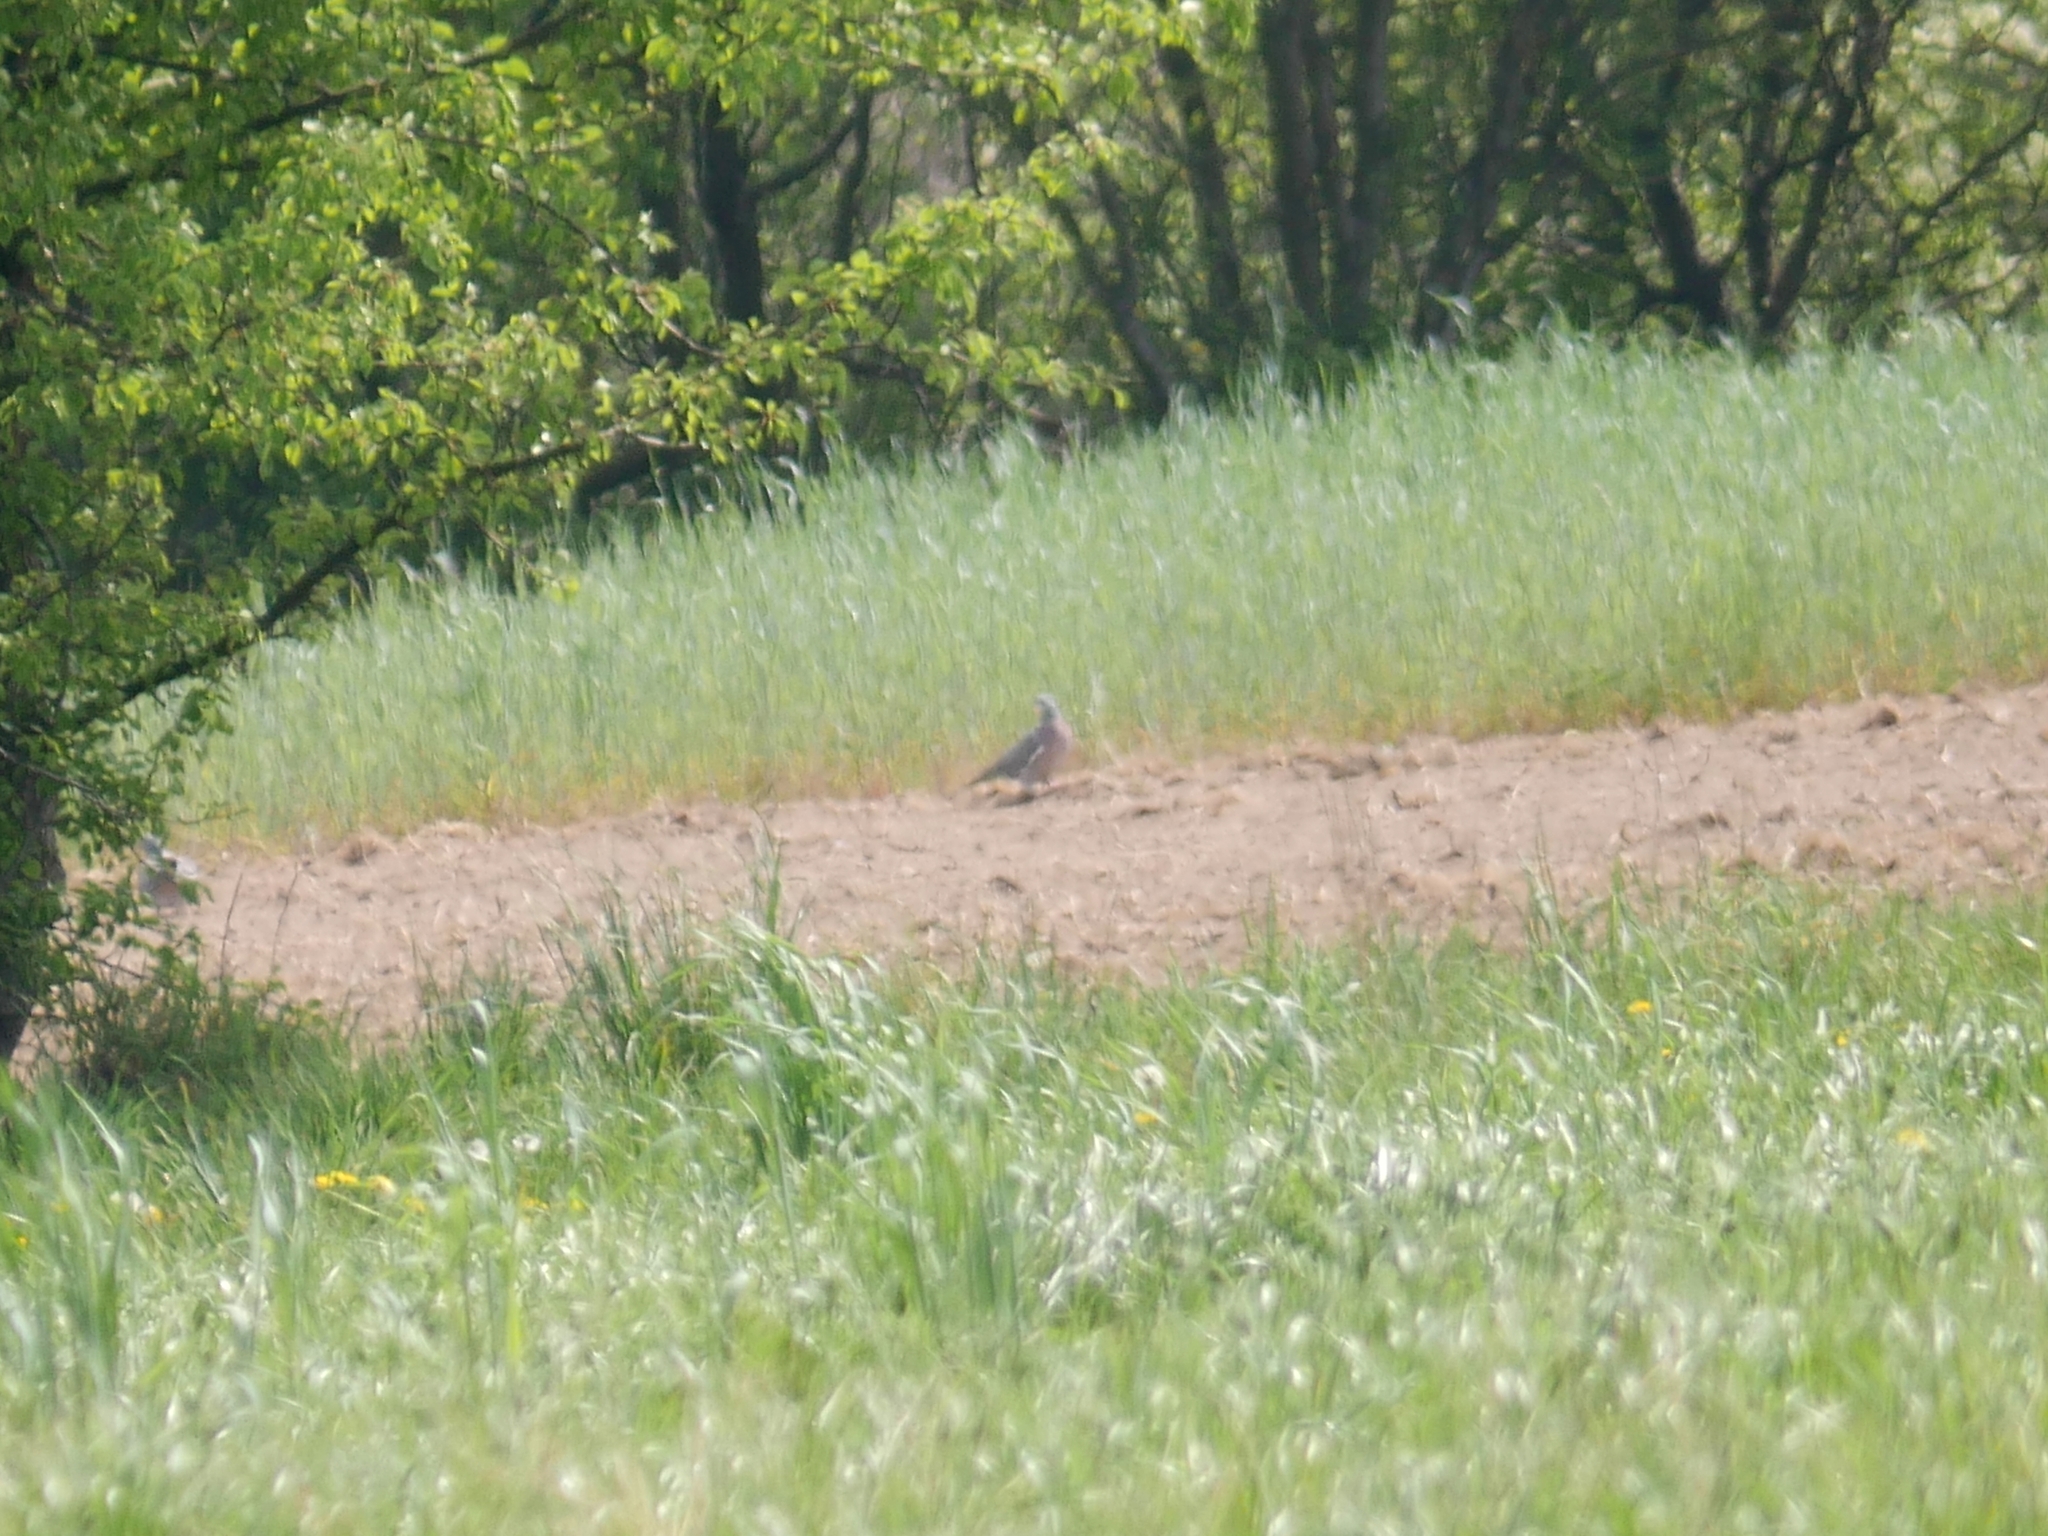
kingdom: Animalia
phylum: Chordata
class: Aves
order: Columbiformes
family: Columbidae
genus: Columba
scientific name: Columba palumbus
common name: Common wood pigeon
